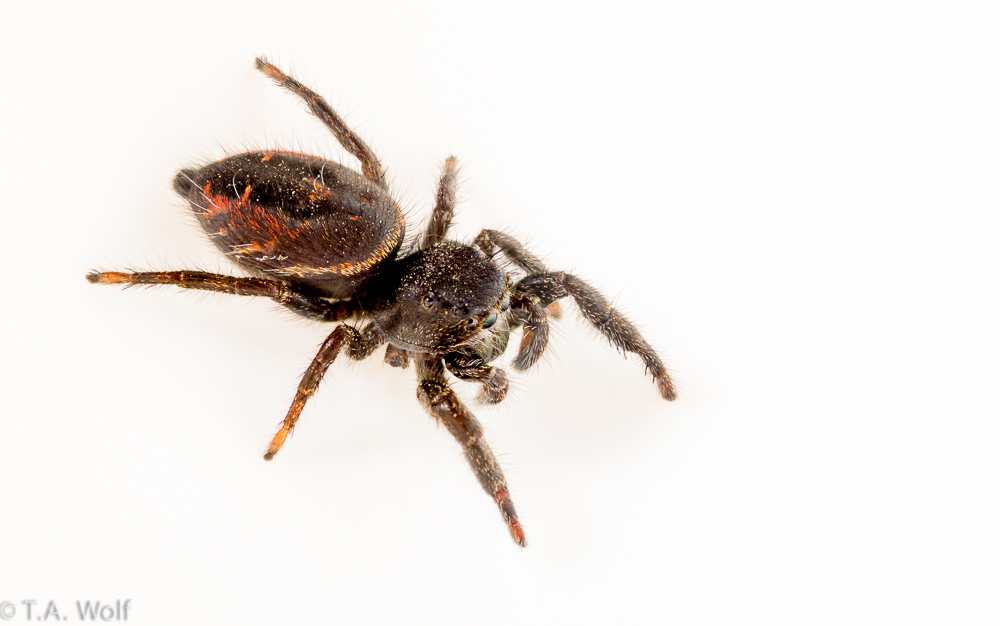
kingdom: Animalia
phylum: Arthropoda
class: Arachnida
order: Araneae
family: Salticidae
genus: Phidippus
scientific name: Phidippus johnsoni
